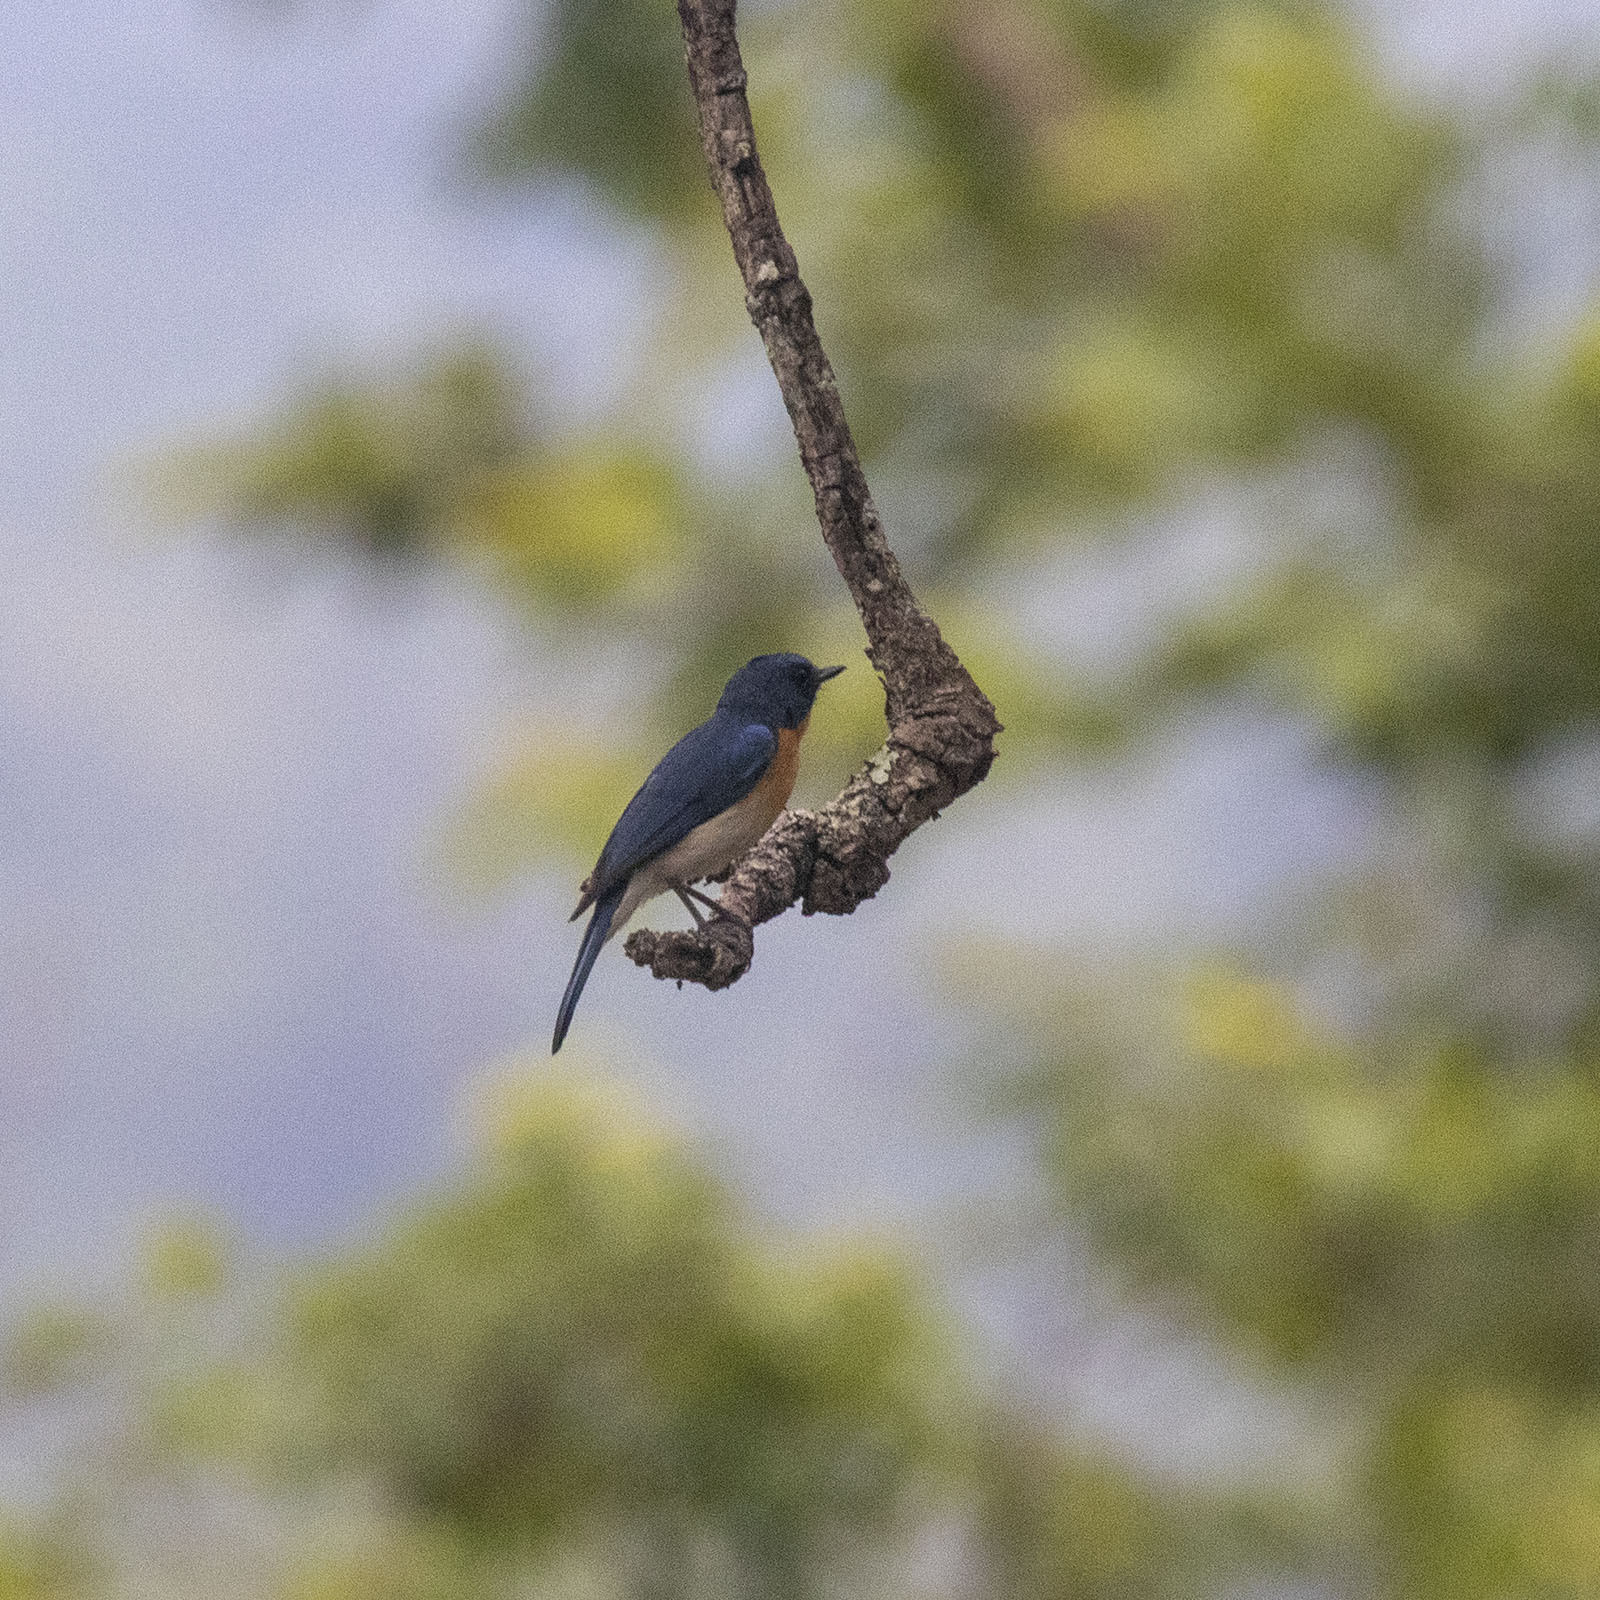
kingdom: Animalia
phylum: Chordata
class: Aves
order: Passeriformes
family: Muscicapidae
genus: Cyornis
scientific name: Cyornis tickelliae
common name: Tickell's blue flycatcher
